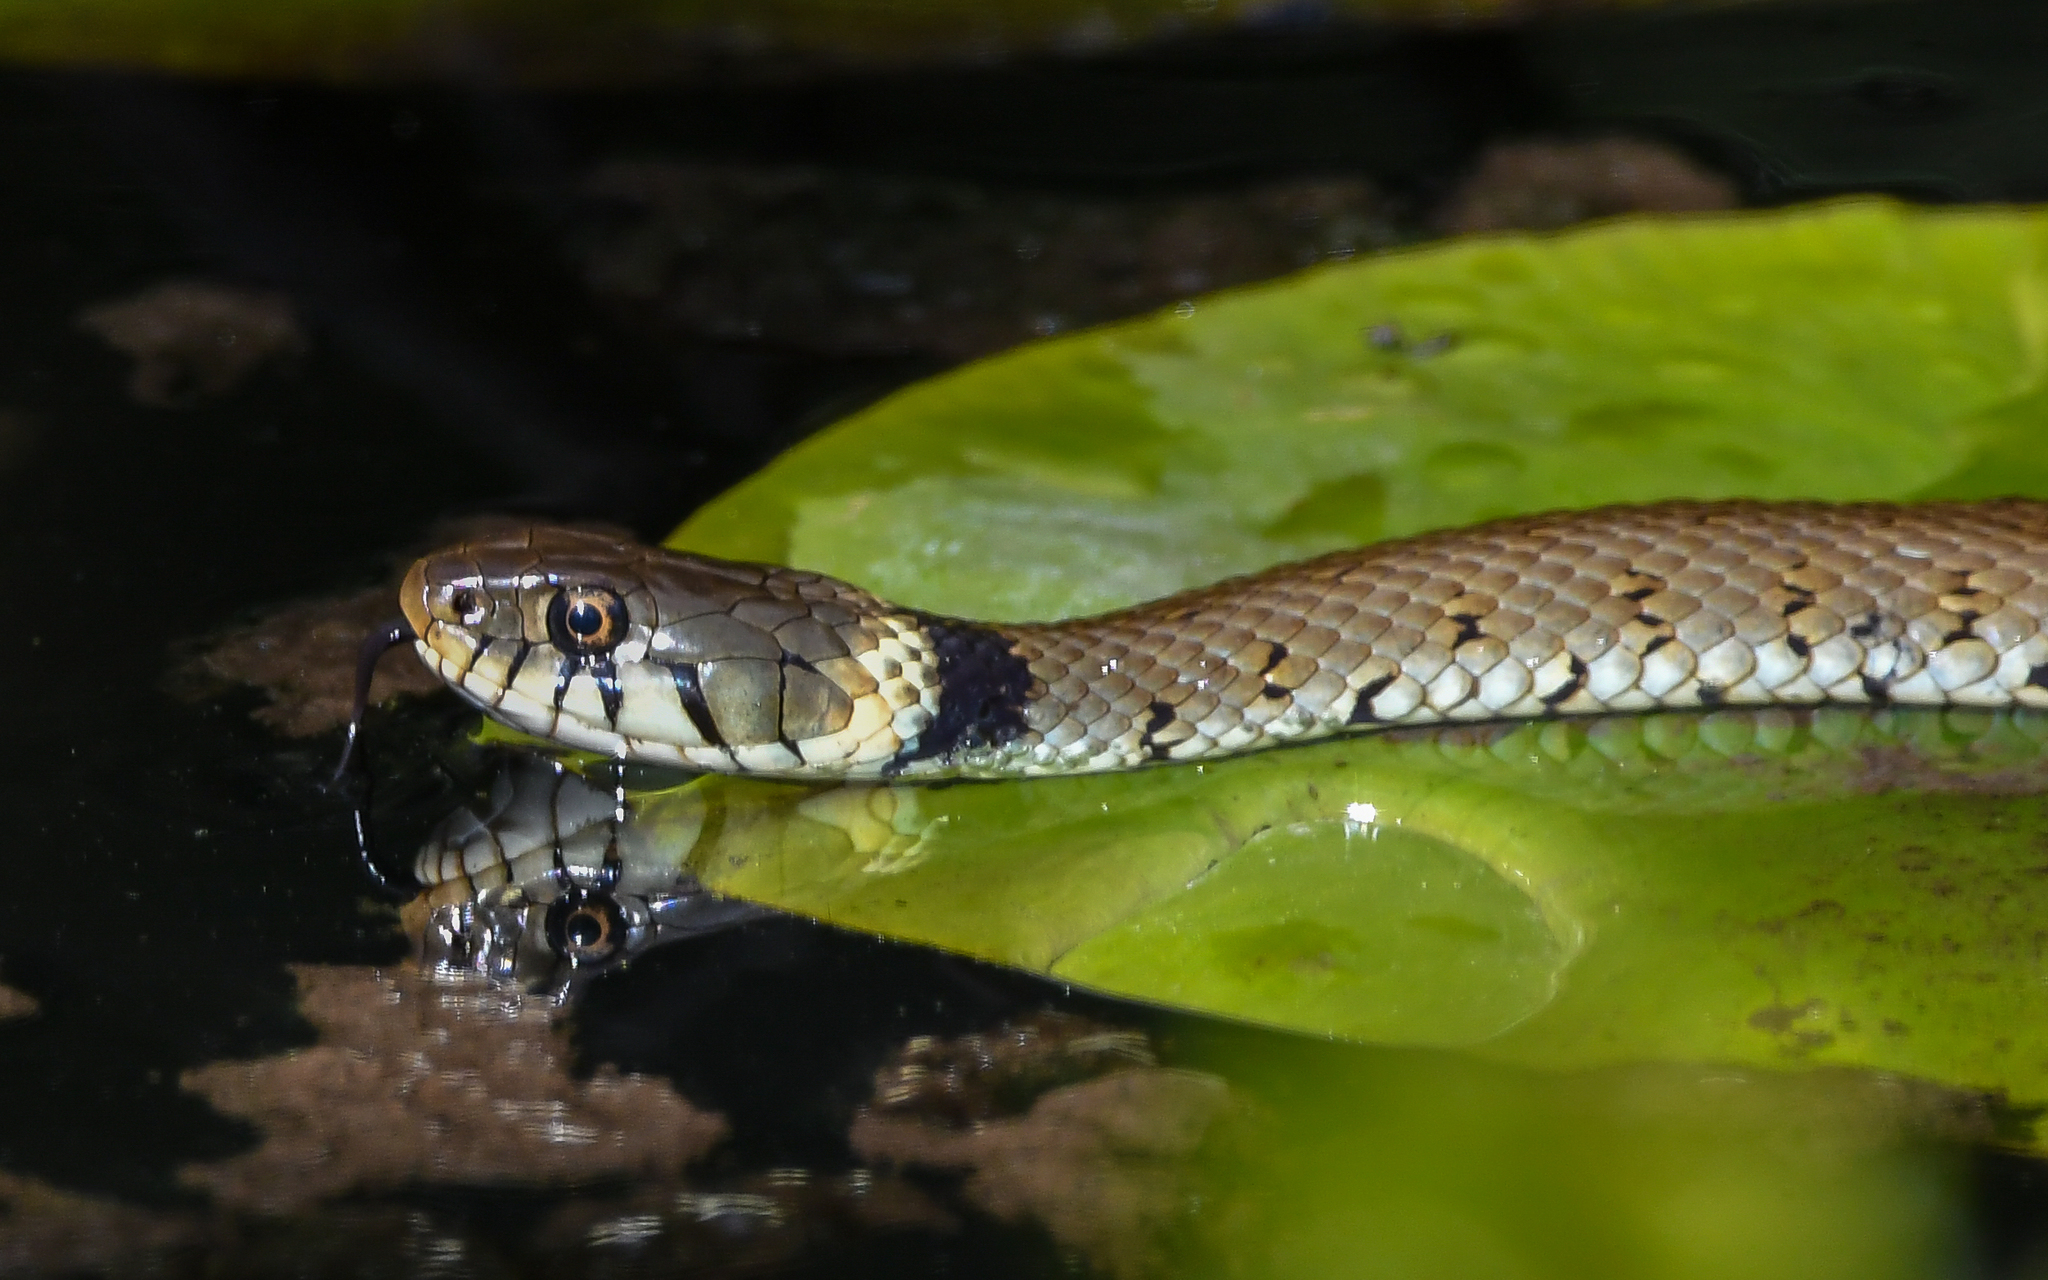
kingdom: Animalia
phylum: Chordata
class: Squamata
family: Colubridae
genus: Natrix
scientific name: Natrix helvetica
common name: Banded grass snake
